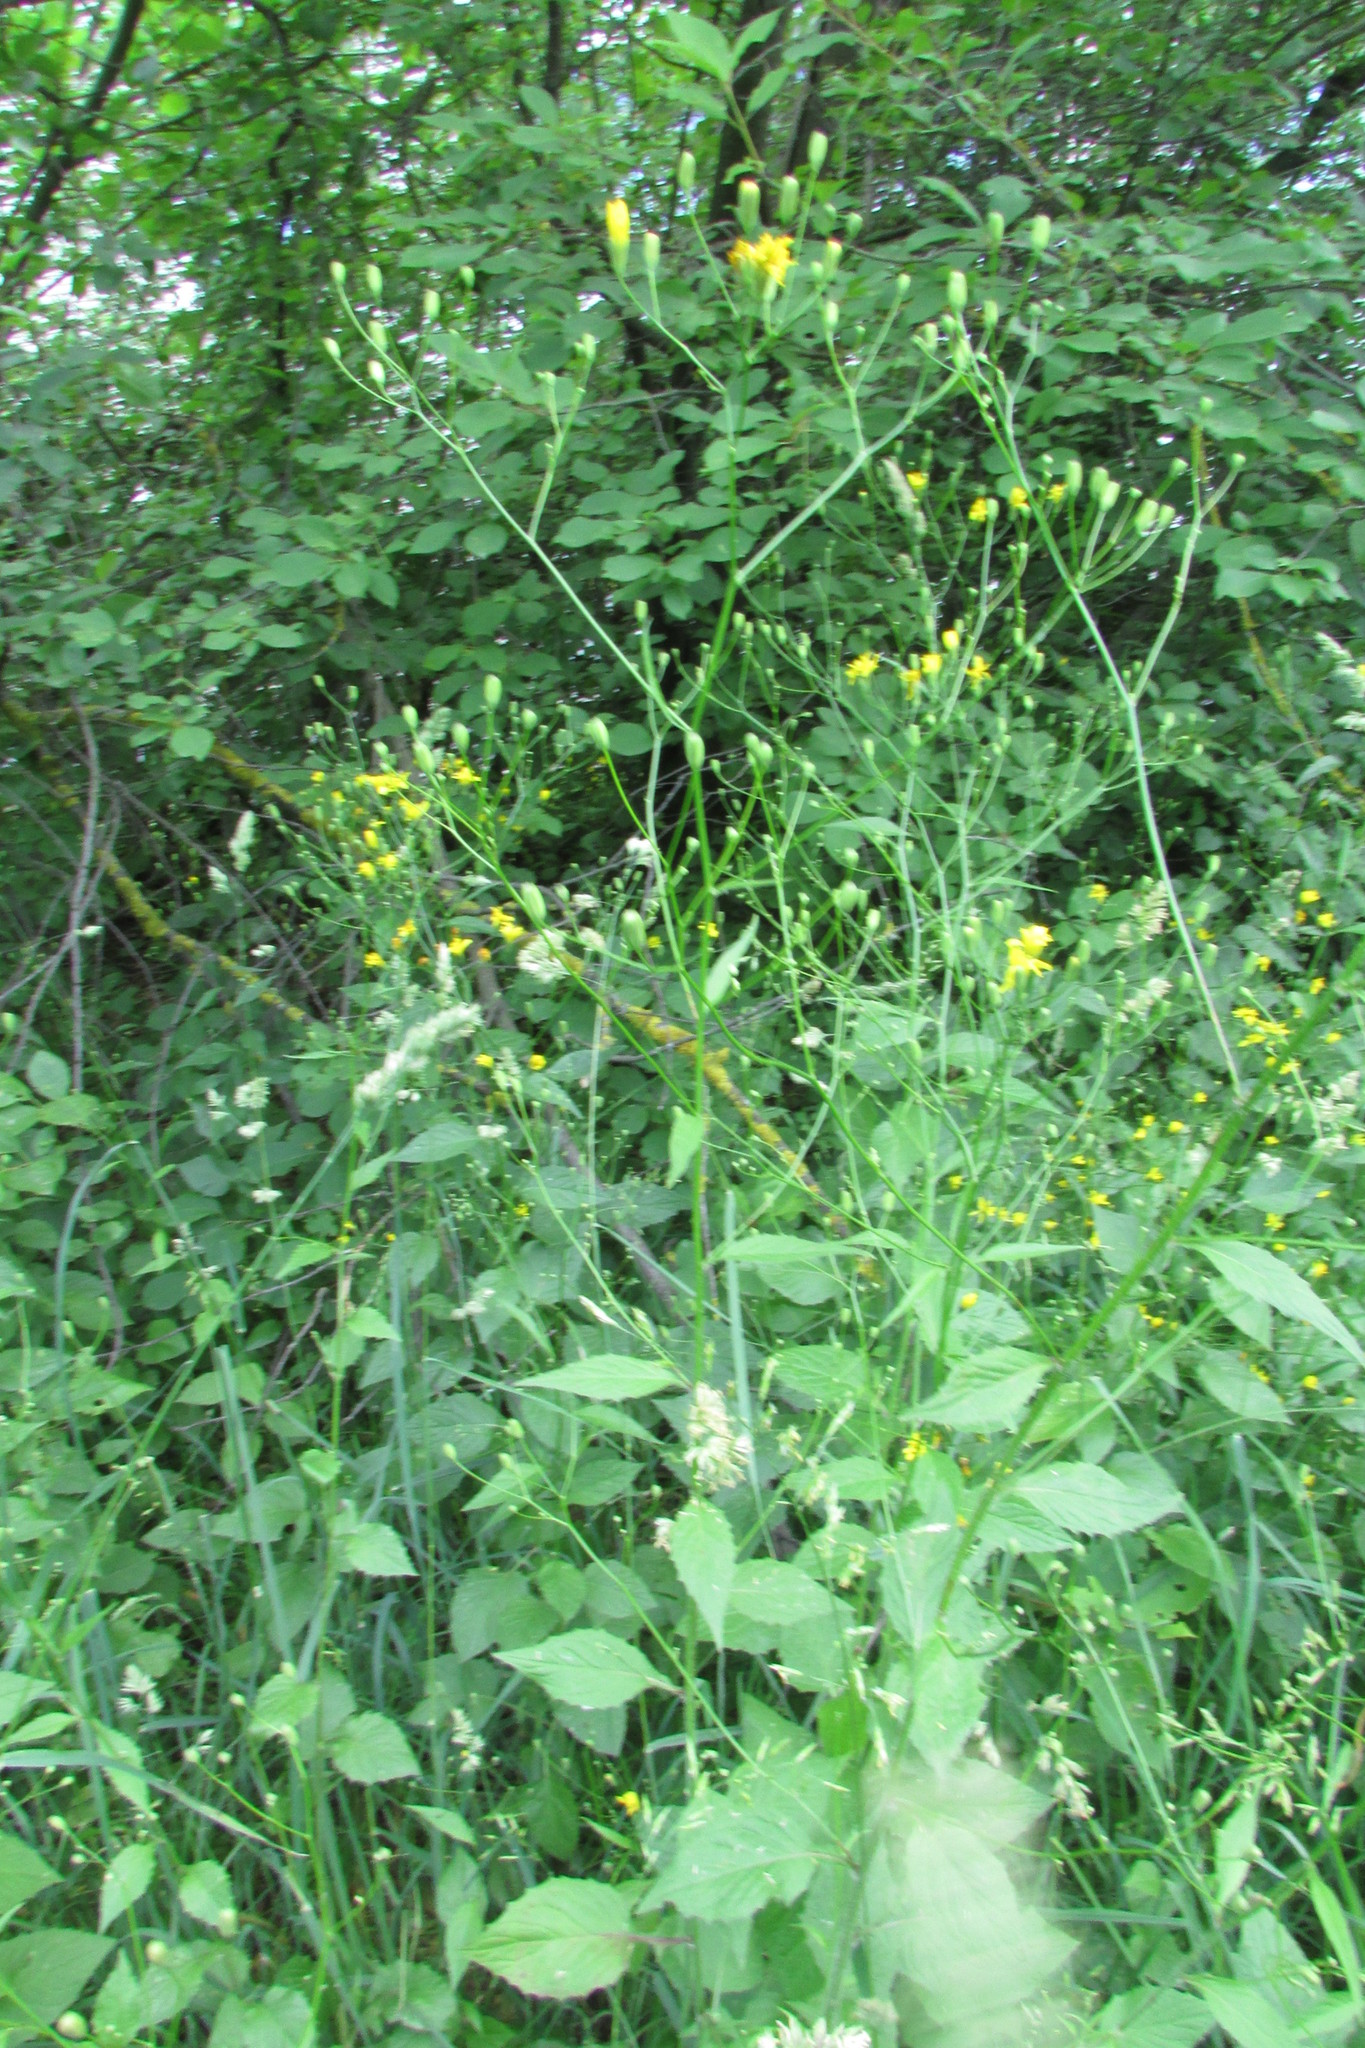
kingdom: Plantae
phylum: Tracheophyta
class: Magnoliopsida
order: Asterales
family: Asteraceae
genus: Lapsana
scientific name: Lapsana communis
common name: Nipplewort
